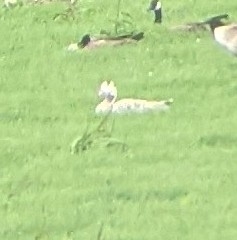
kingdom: Animalia
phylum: Chordata
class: Aves
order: Anseriformes
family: Anatidae
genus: Anser
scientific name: Anser indicus
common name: Bar-headed goose
